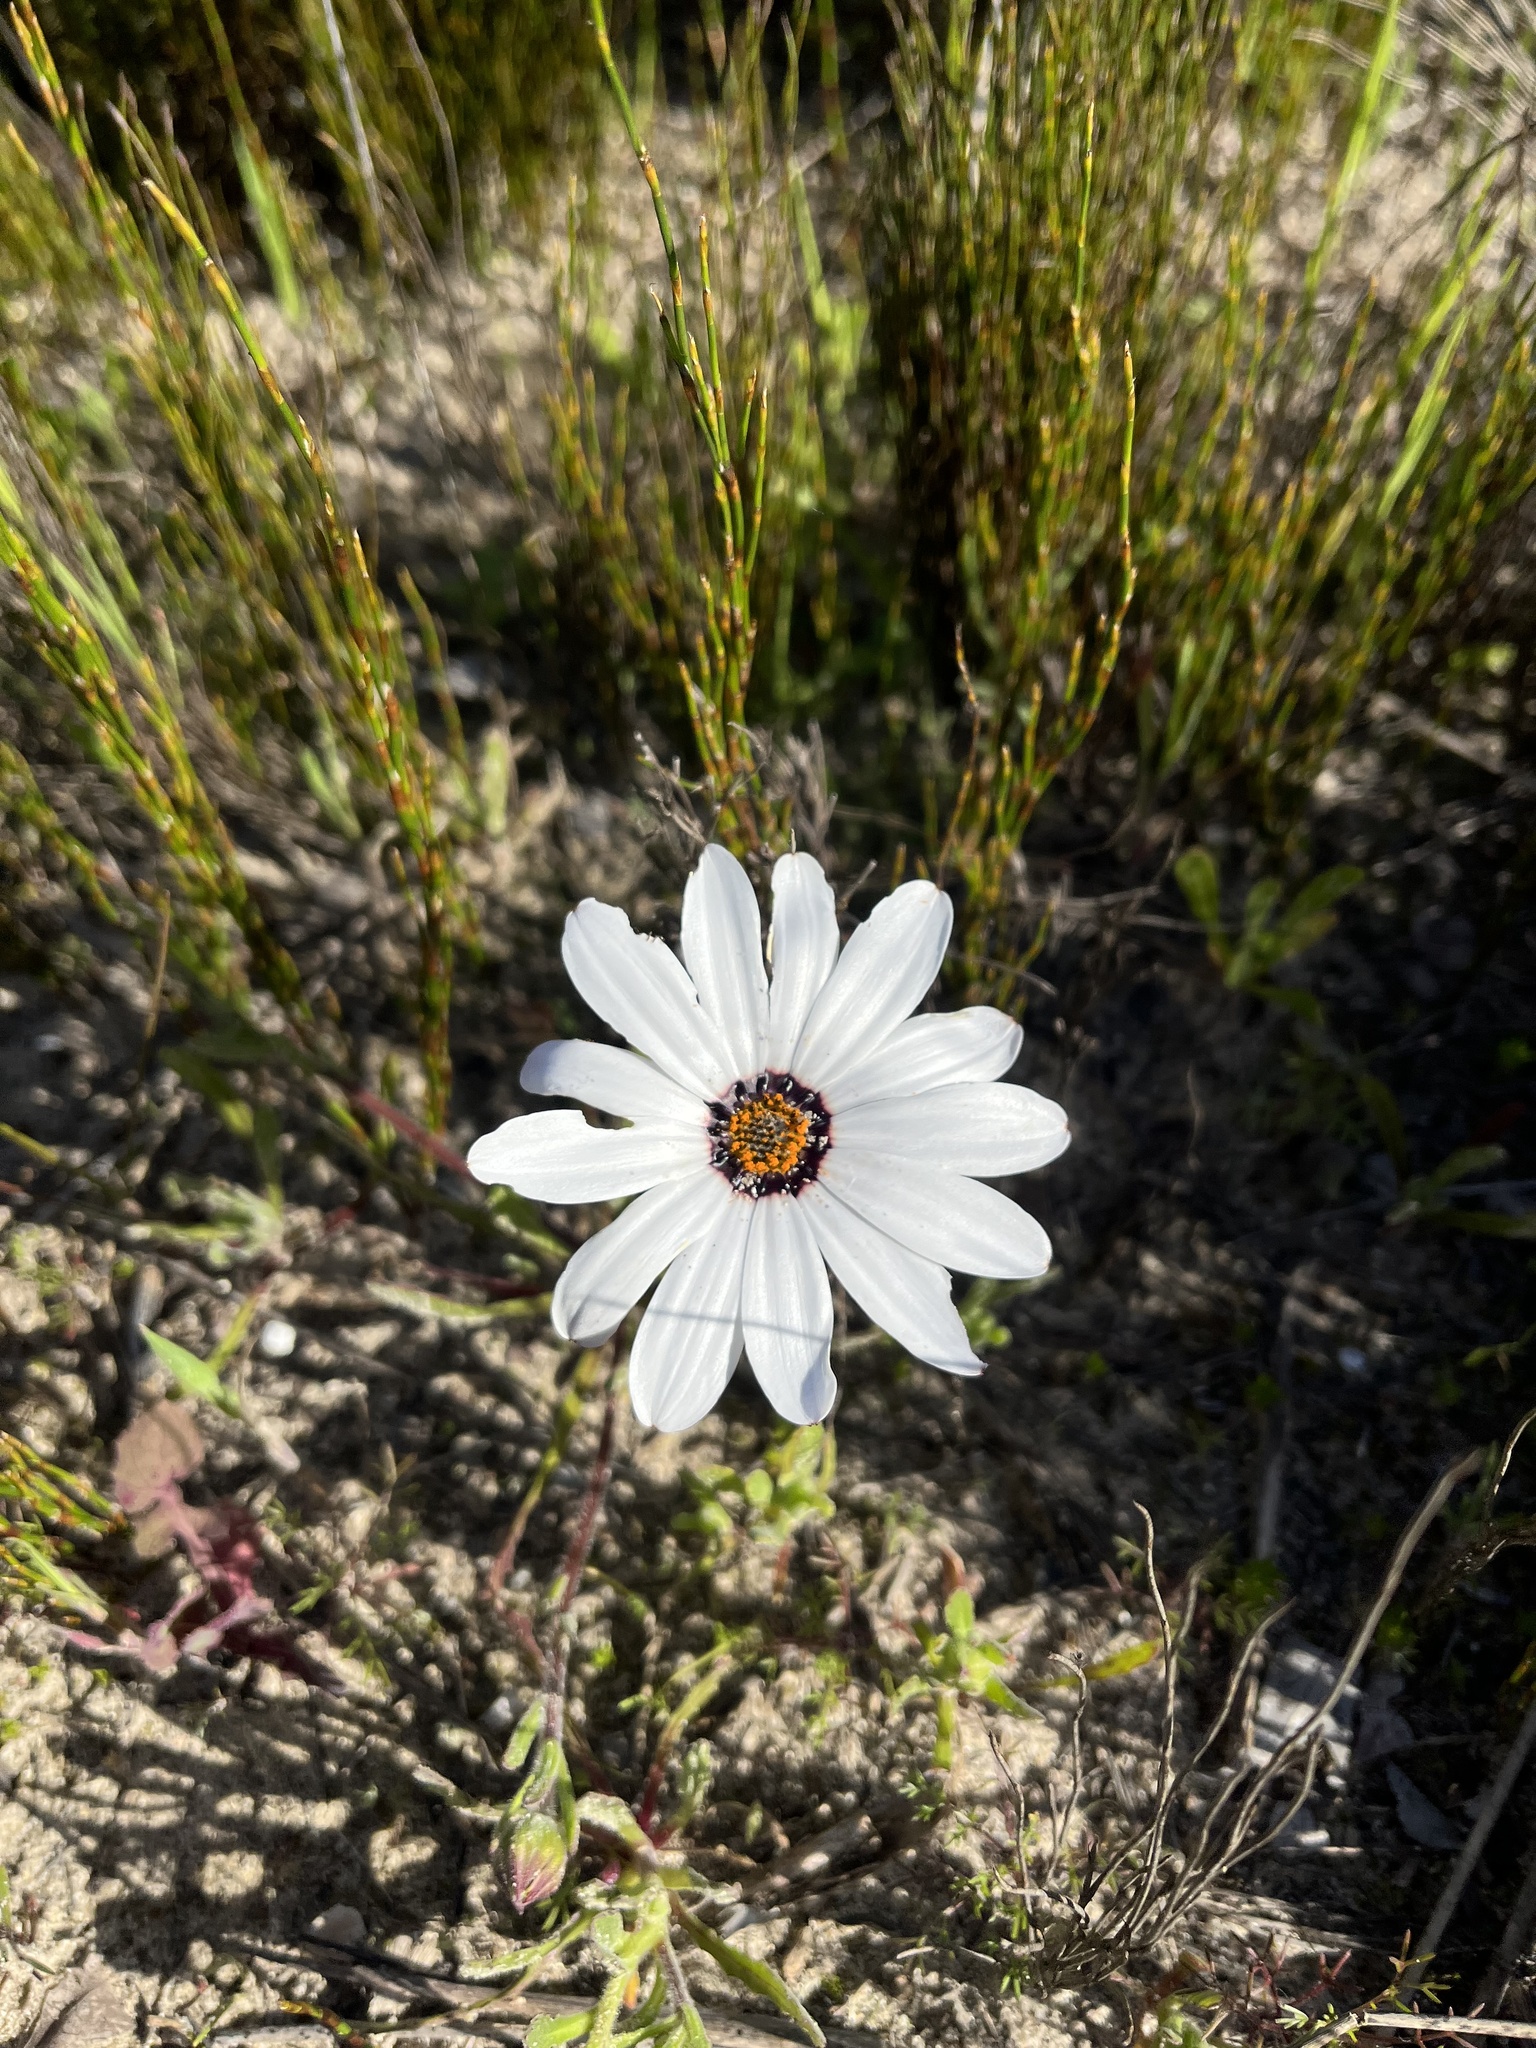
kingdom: Plantae
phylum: Tracheophyta
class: Magnoliopsida
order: Asterales
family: Asteraceae
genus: Dimorphotheca
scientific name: Dimorphotheca pluvialis
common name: Weather prophet
